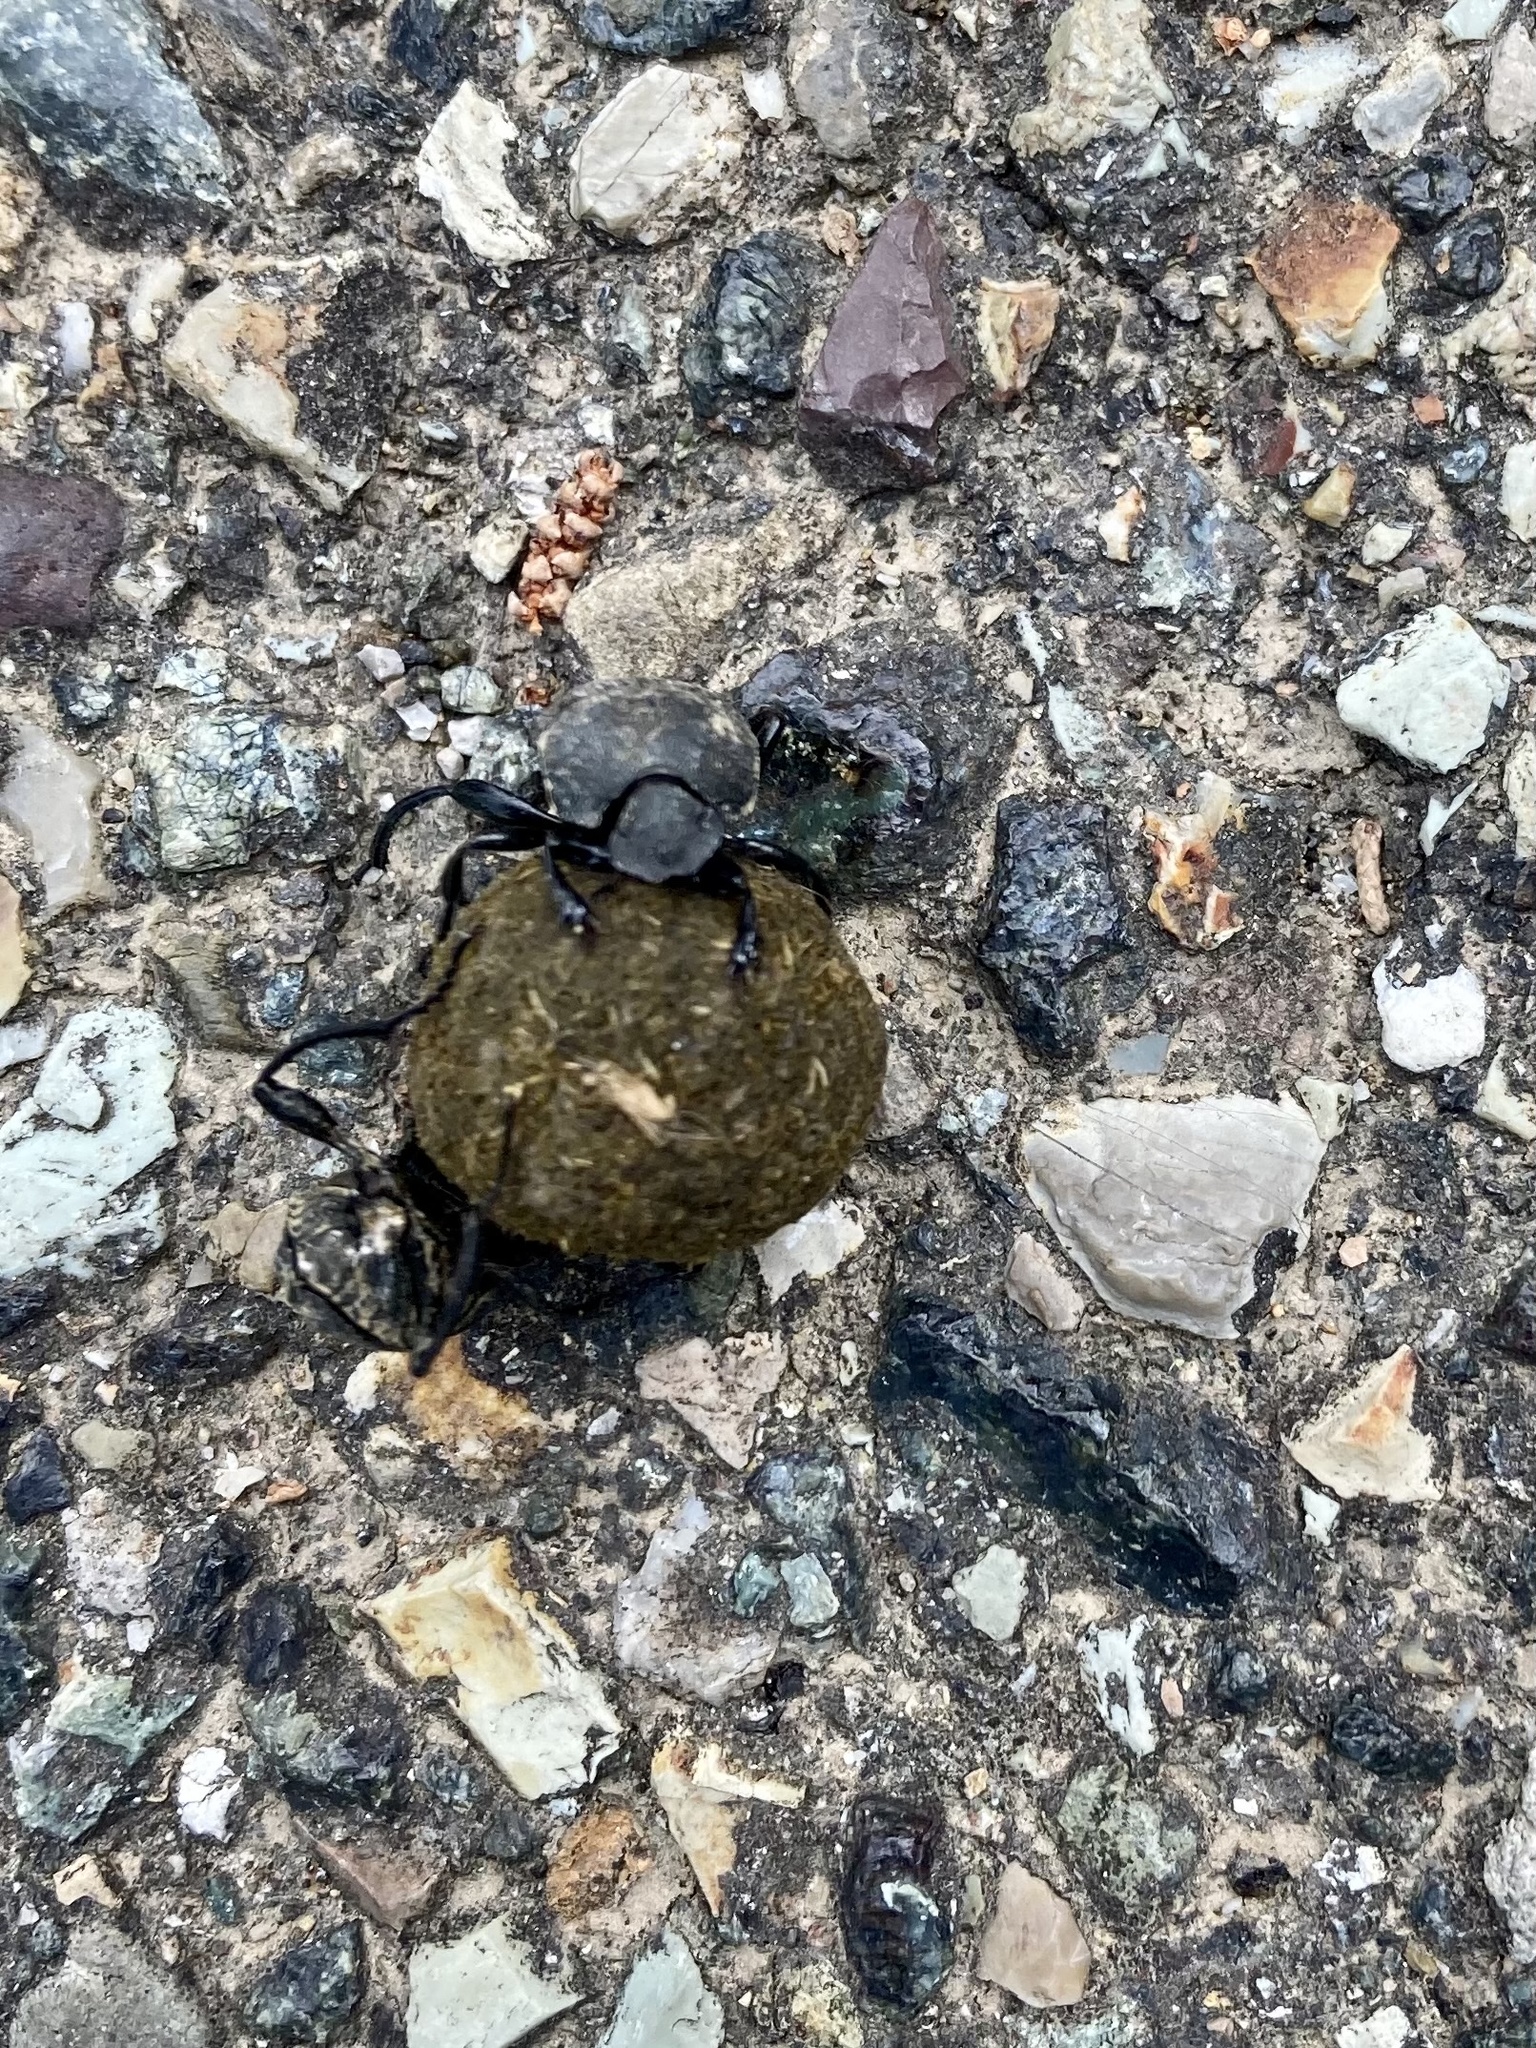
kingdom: Animalia
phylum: Arthropoda
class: Insecta
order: Coleoptera
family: Scarabaeidae
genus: Sisyphus
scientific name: Sisyphus schaefferi
